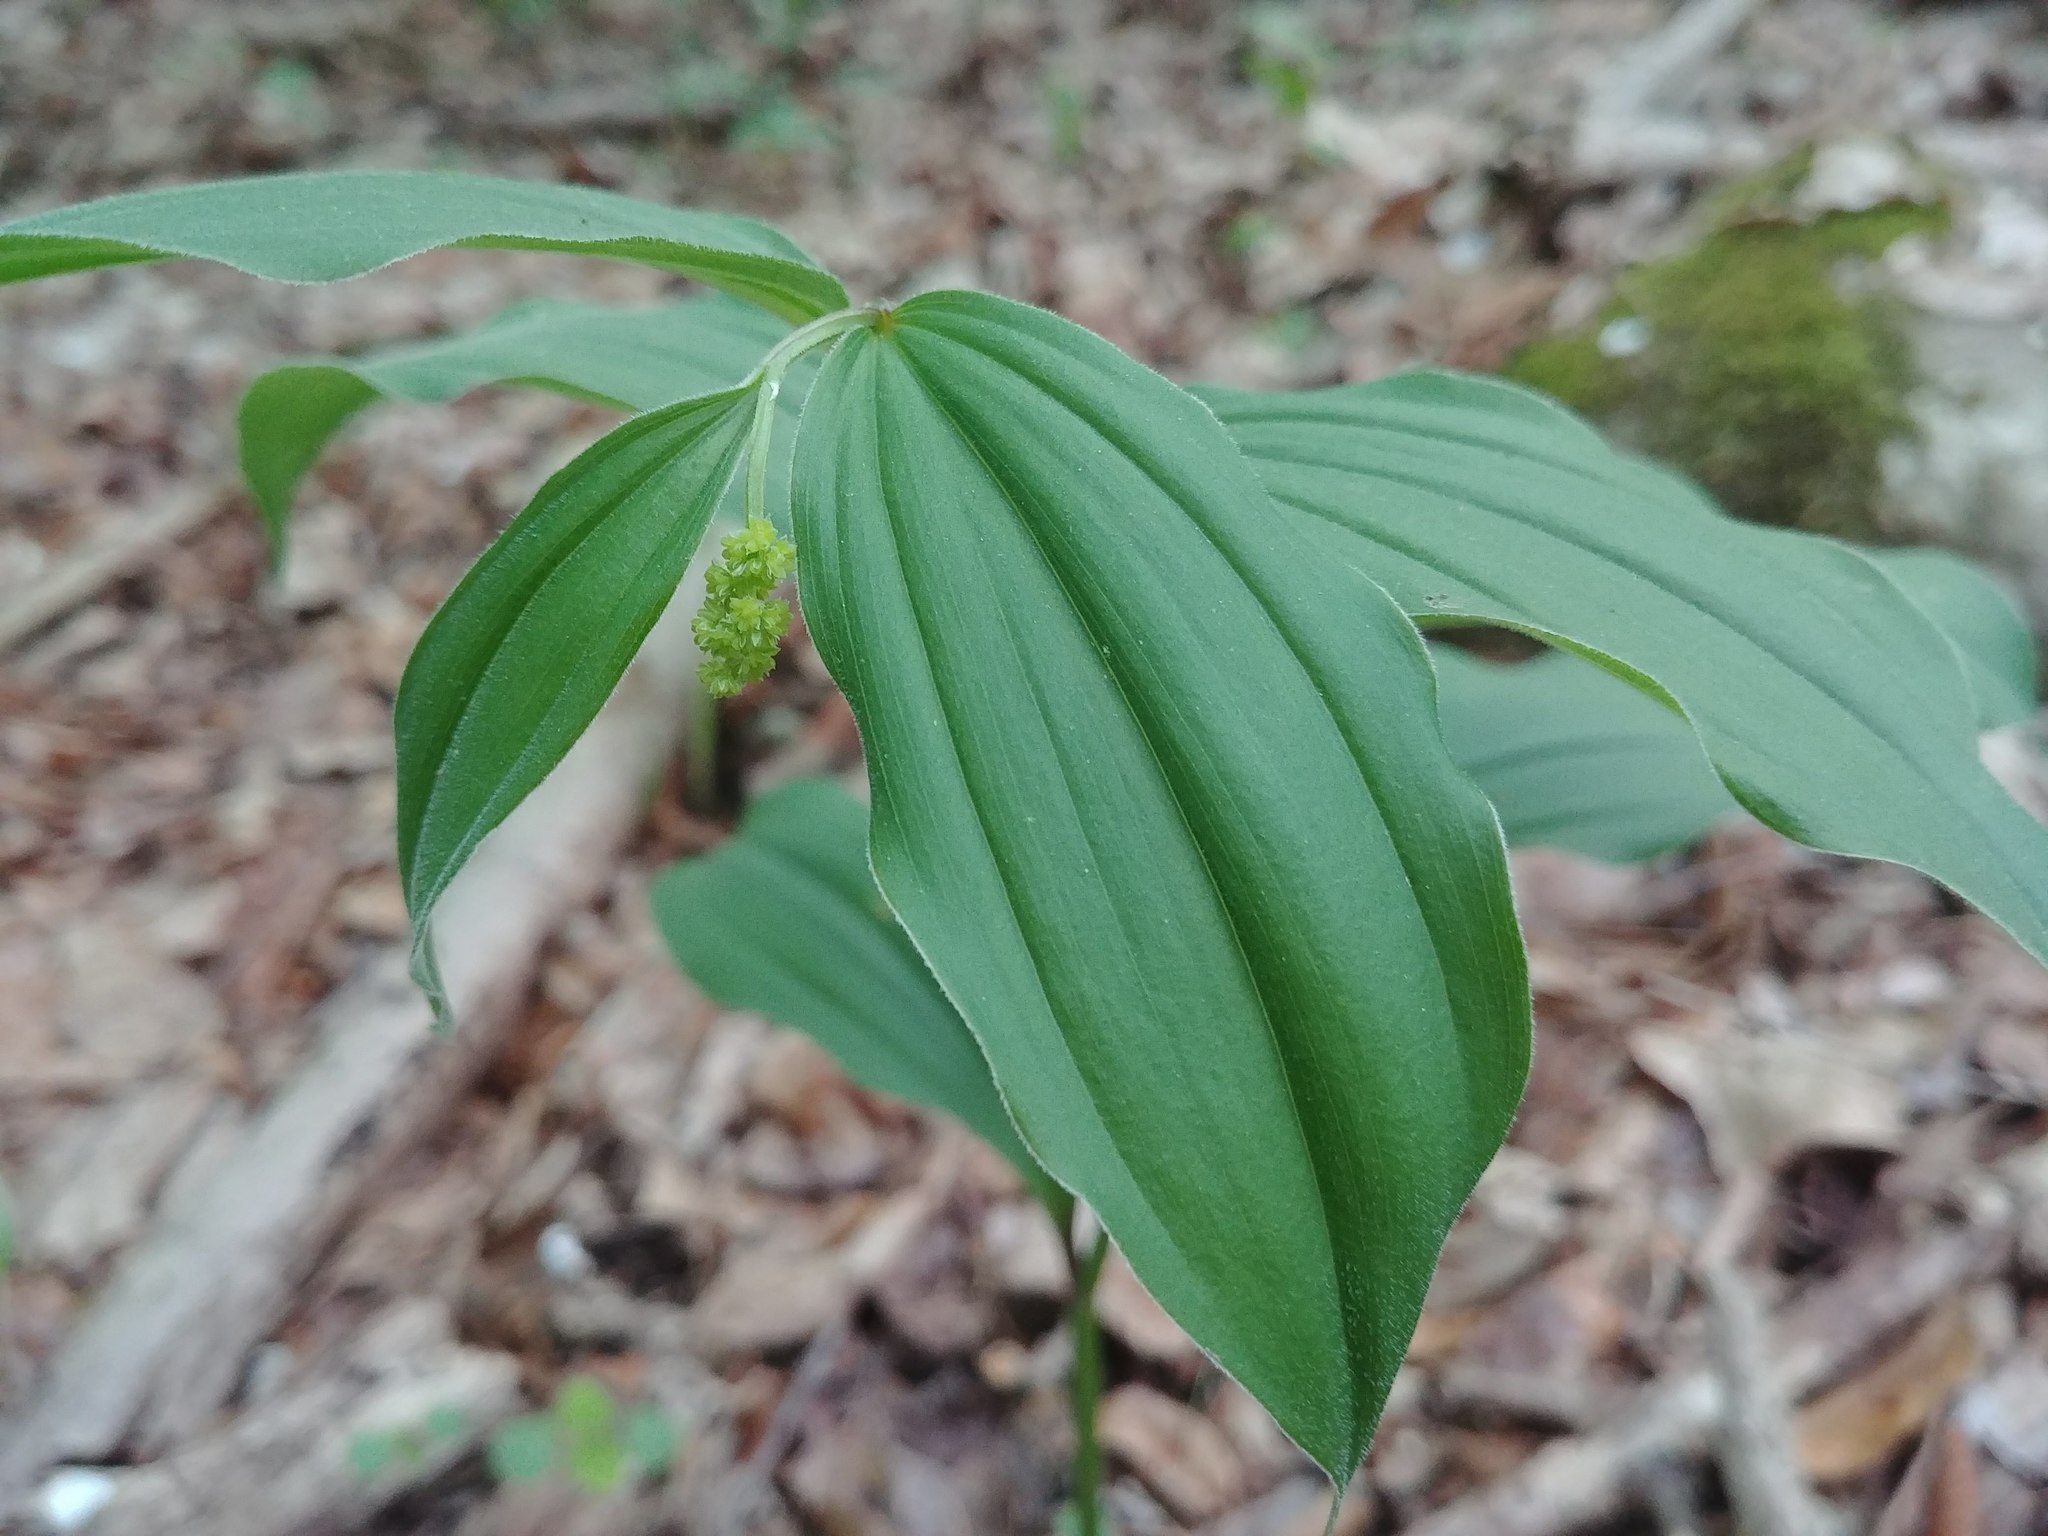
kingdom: Plantae
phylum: Tracheophyta
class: Liliopsida
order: Asparagales
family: Asparagaceae
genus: Maianthemum
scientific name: Maianthemum racemosum
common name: False spikenard
